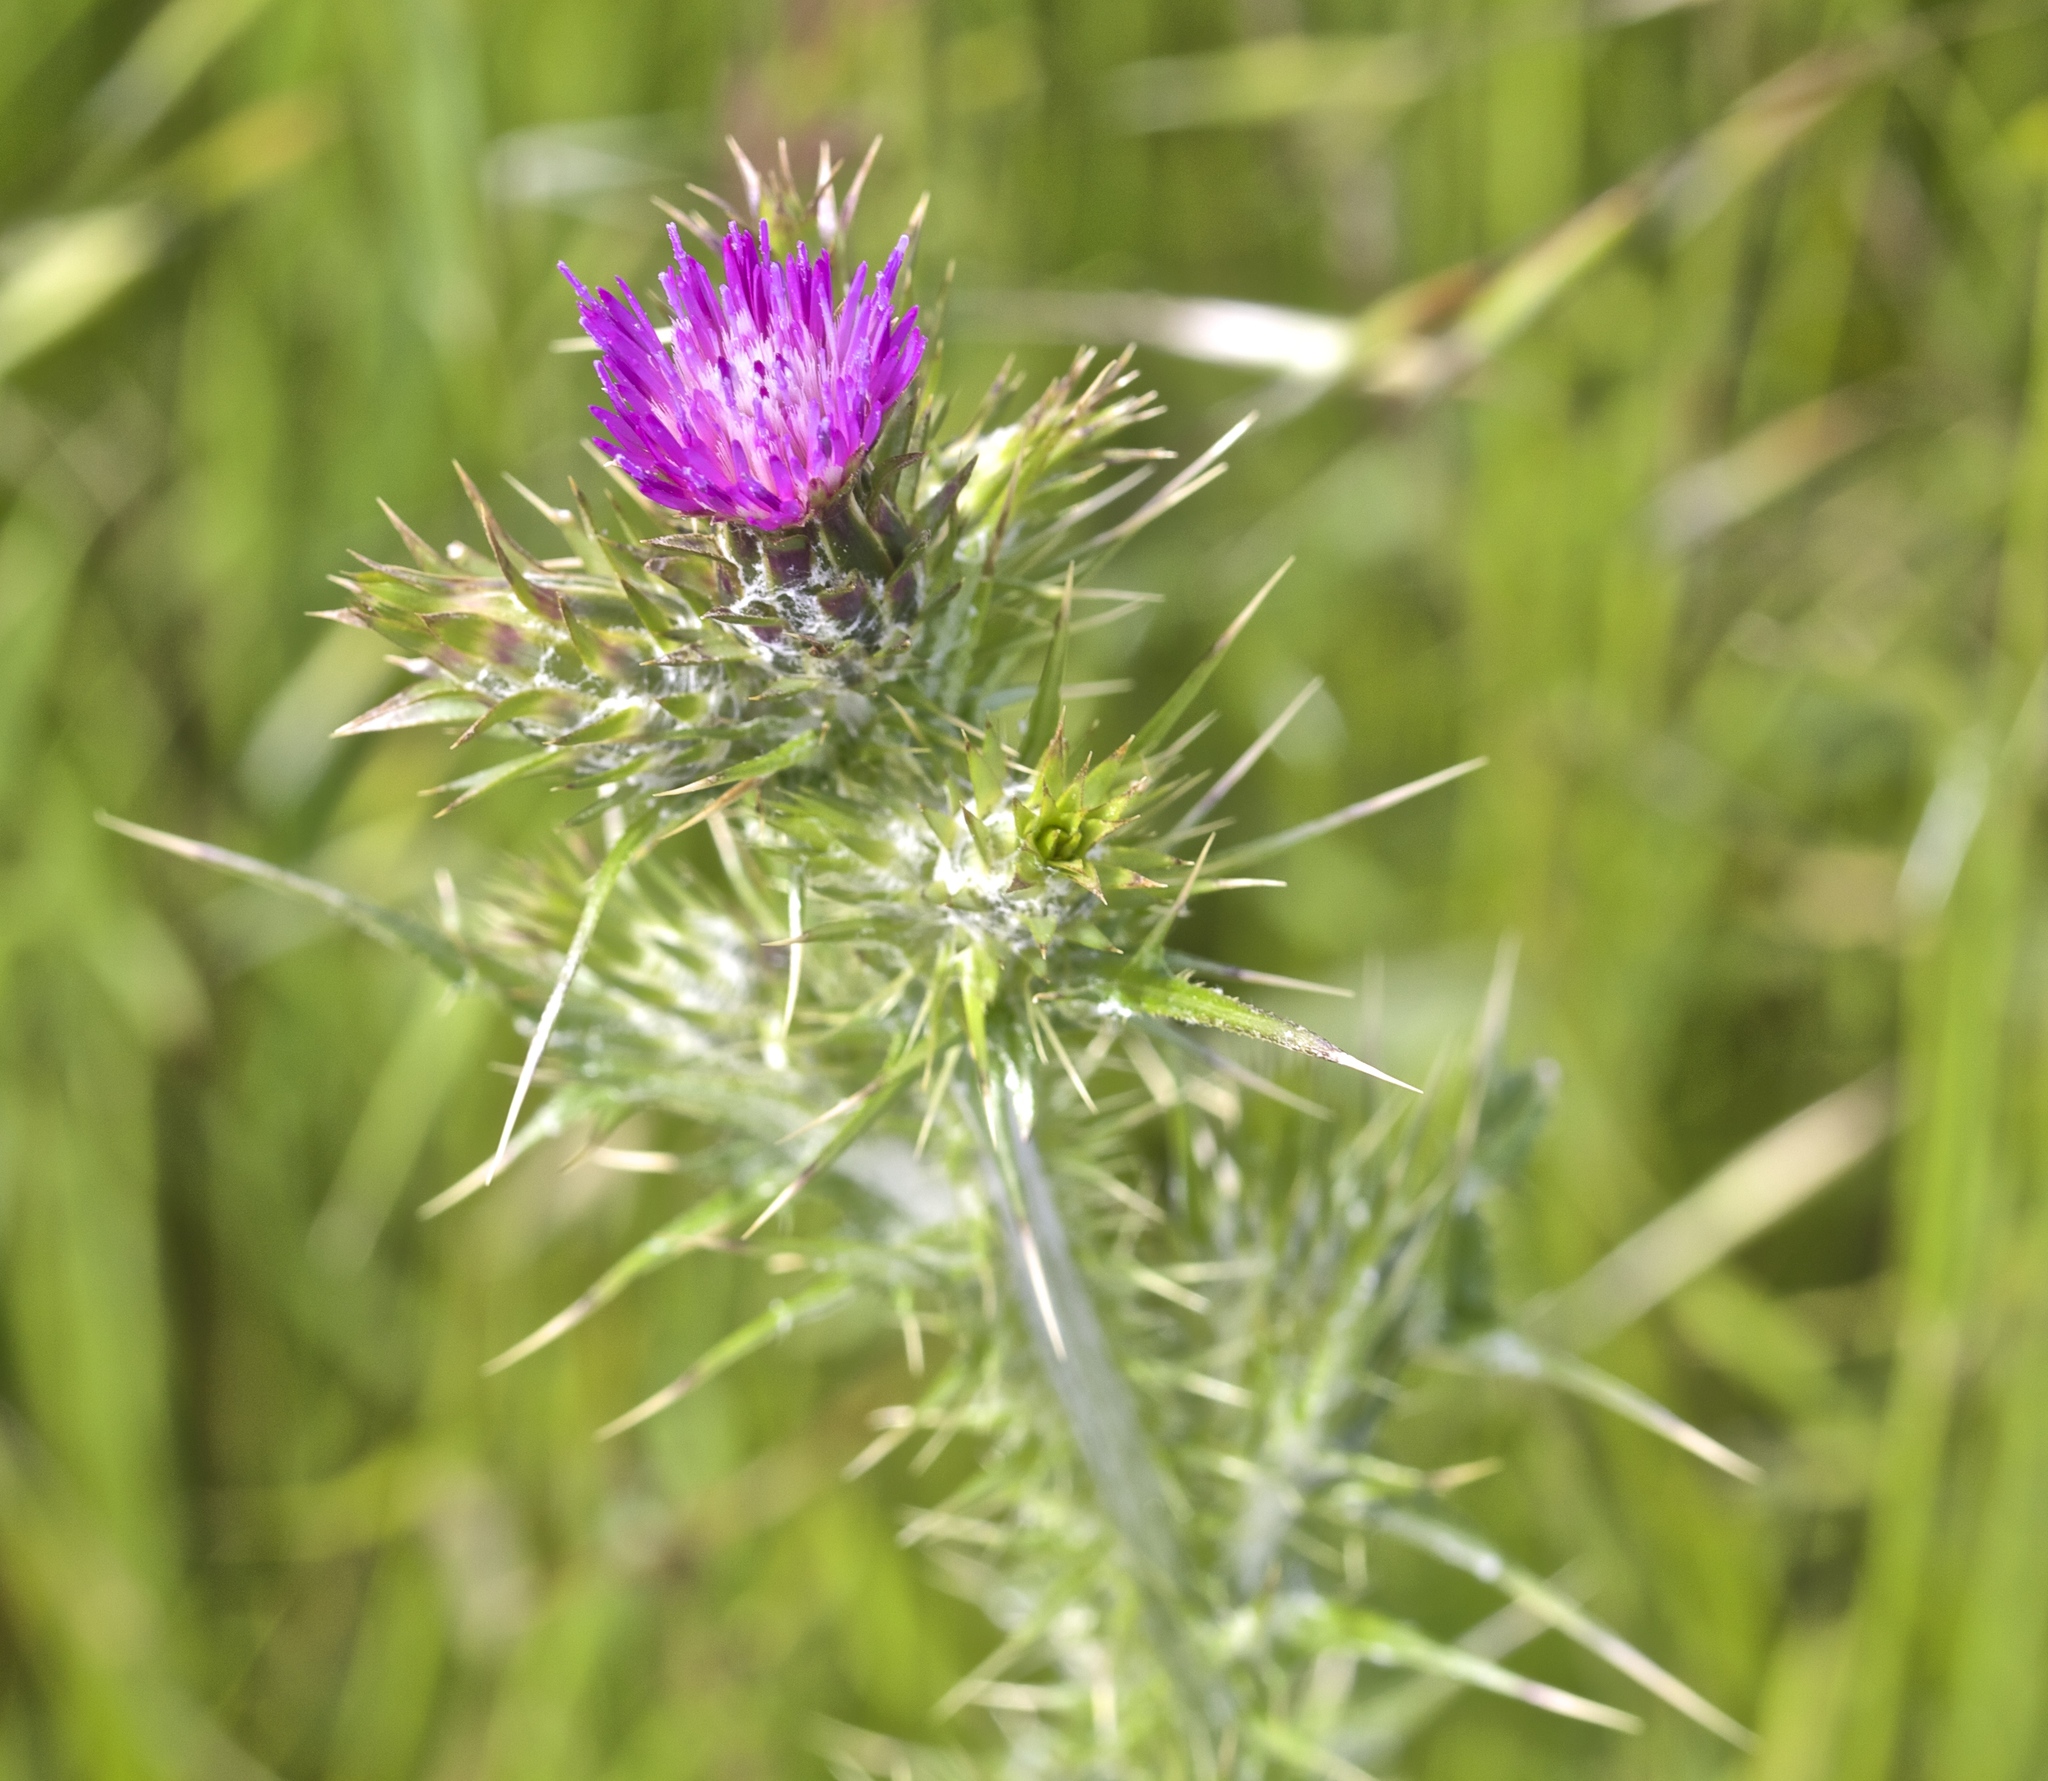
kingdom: Plantae
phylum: Tracheophyta
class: Magnoliopsida
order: Asterales
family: Asteraceae
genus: Carduus
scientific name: Carduus pycnocephalus
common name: Plymouth thistle
